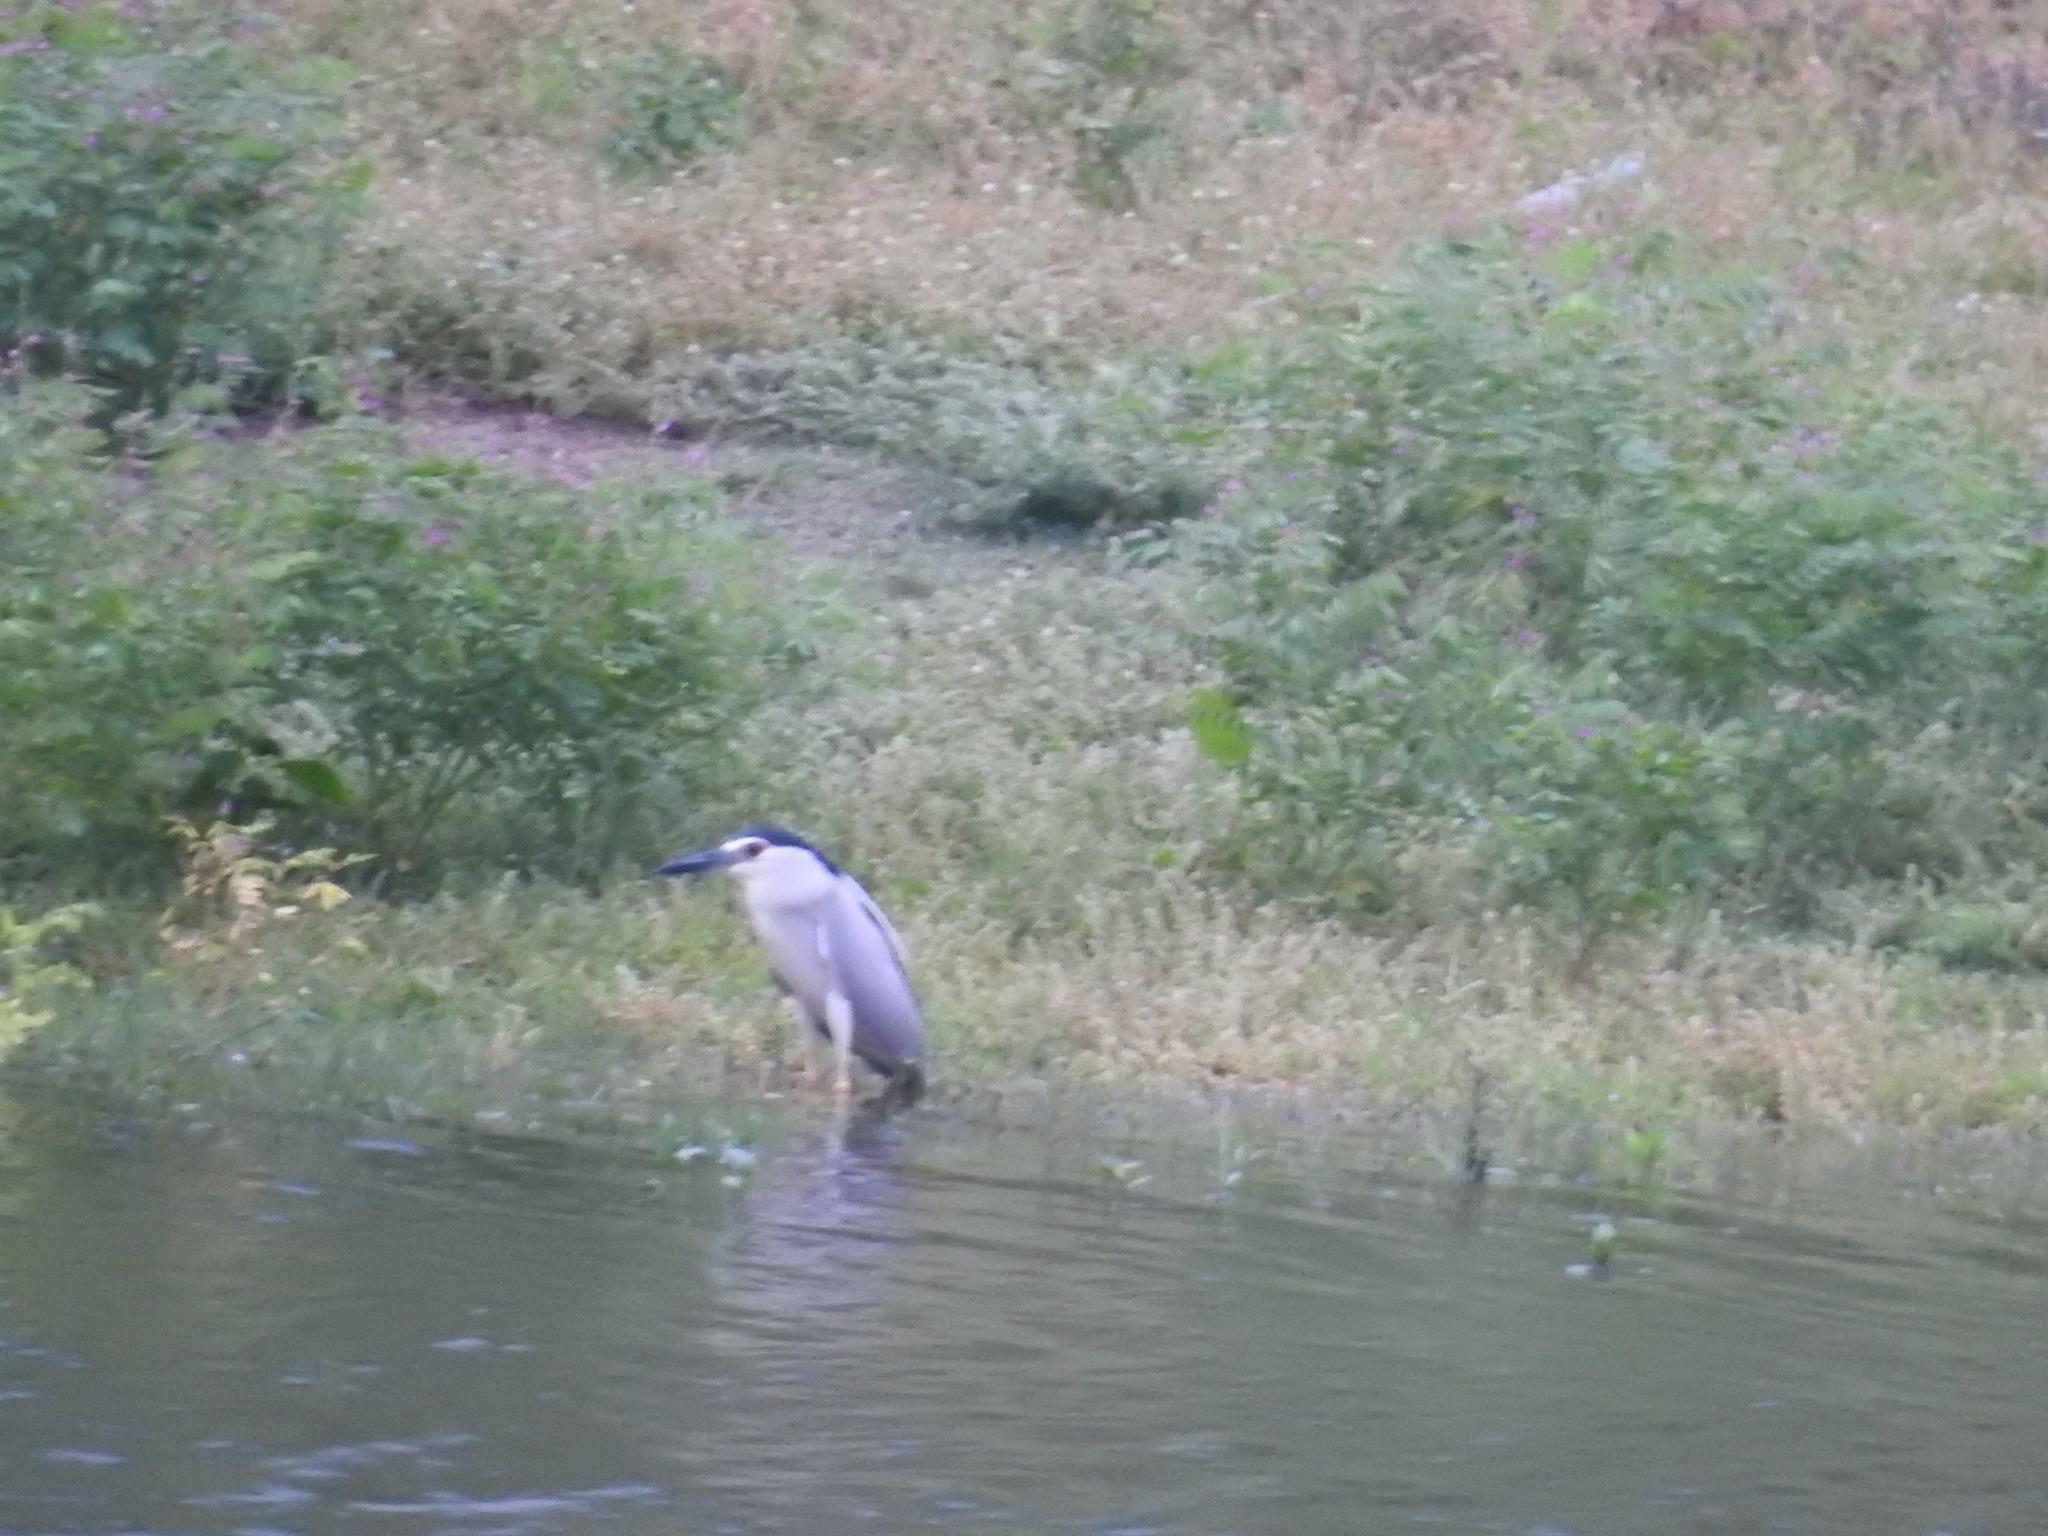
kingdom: Animalia
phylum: Chordata
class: Aves
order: Pelecaniformes
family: Ardeidae
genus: Nycticorax
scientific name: Nycticorax nycticorax
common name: Black-crowned night heron
